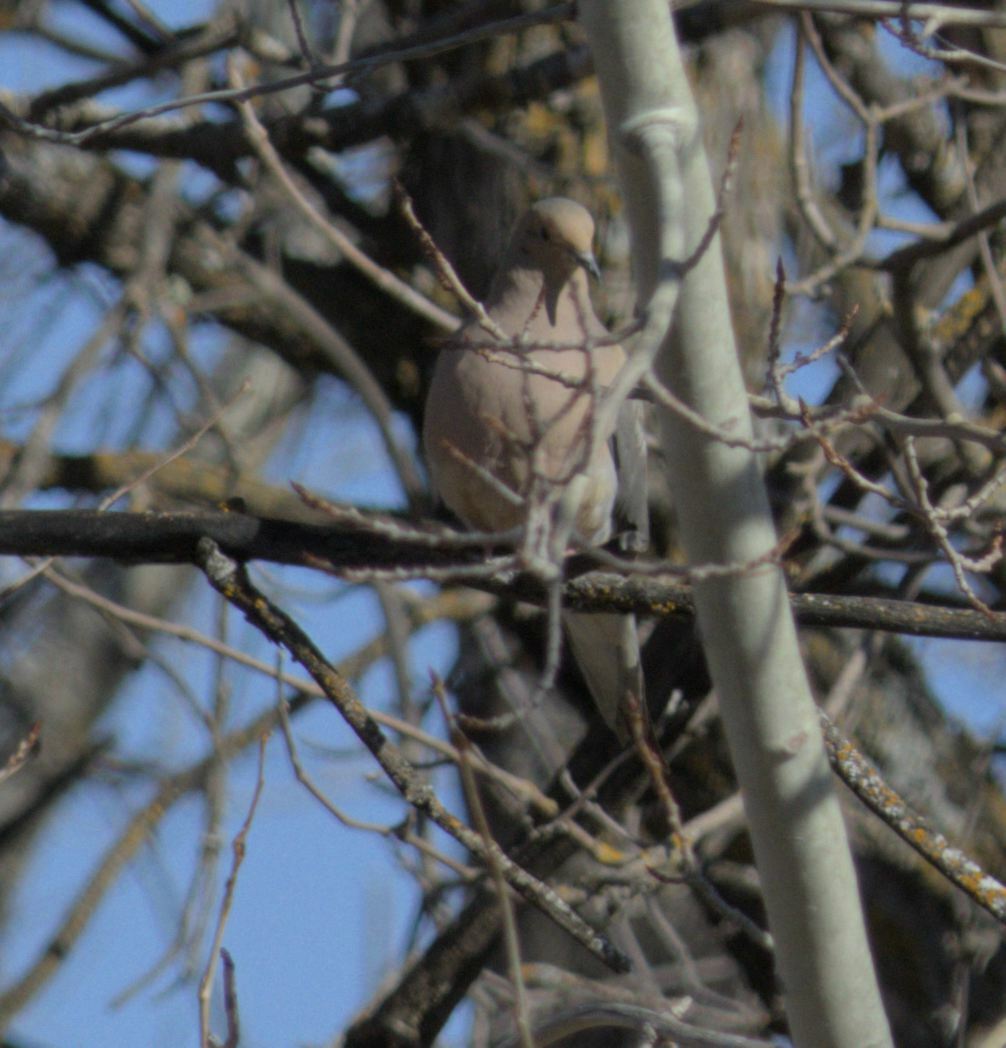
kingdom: Animalia
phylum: Chordata
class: Aves
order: Columbiformes
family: Columbidae
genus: Zenaida
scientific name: Zenaida macroura
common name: Mourning dove
